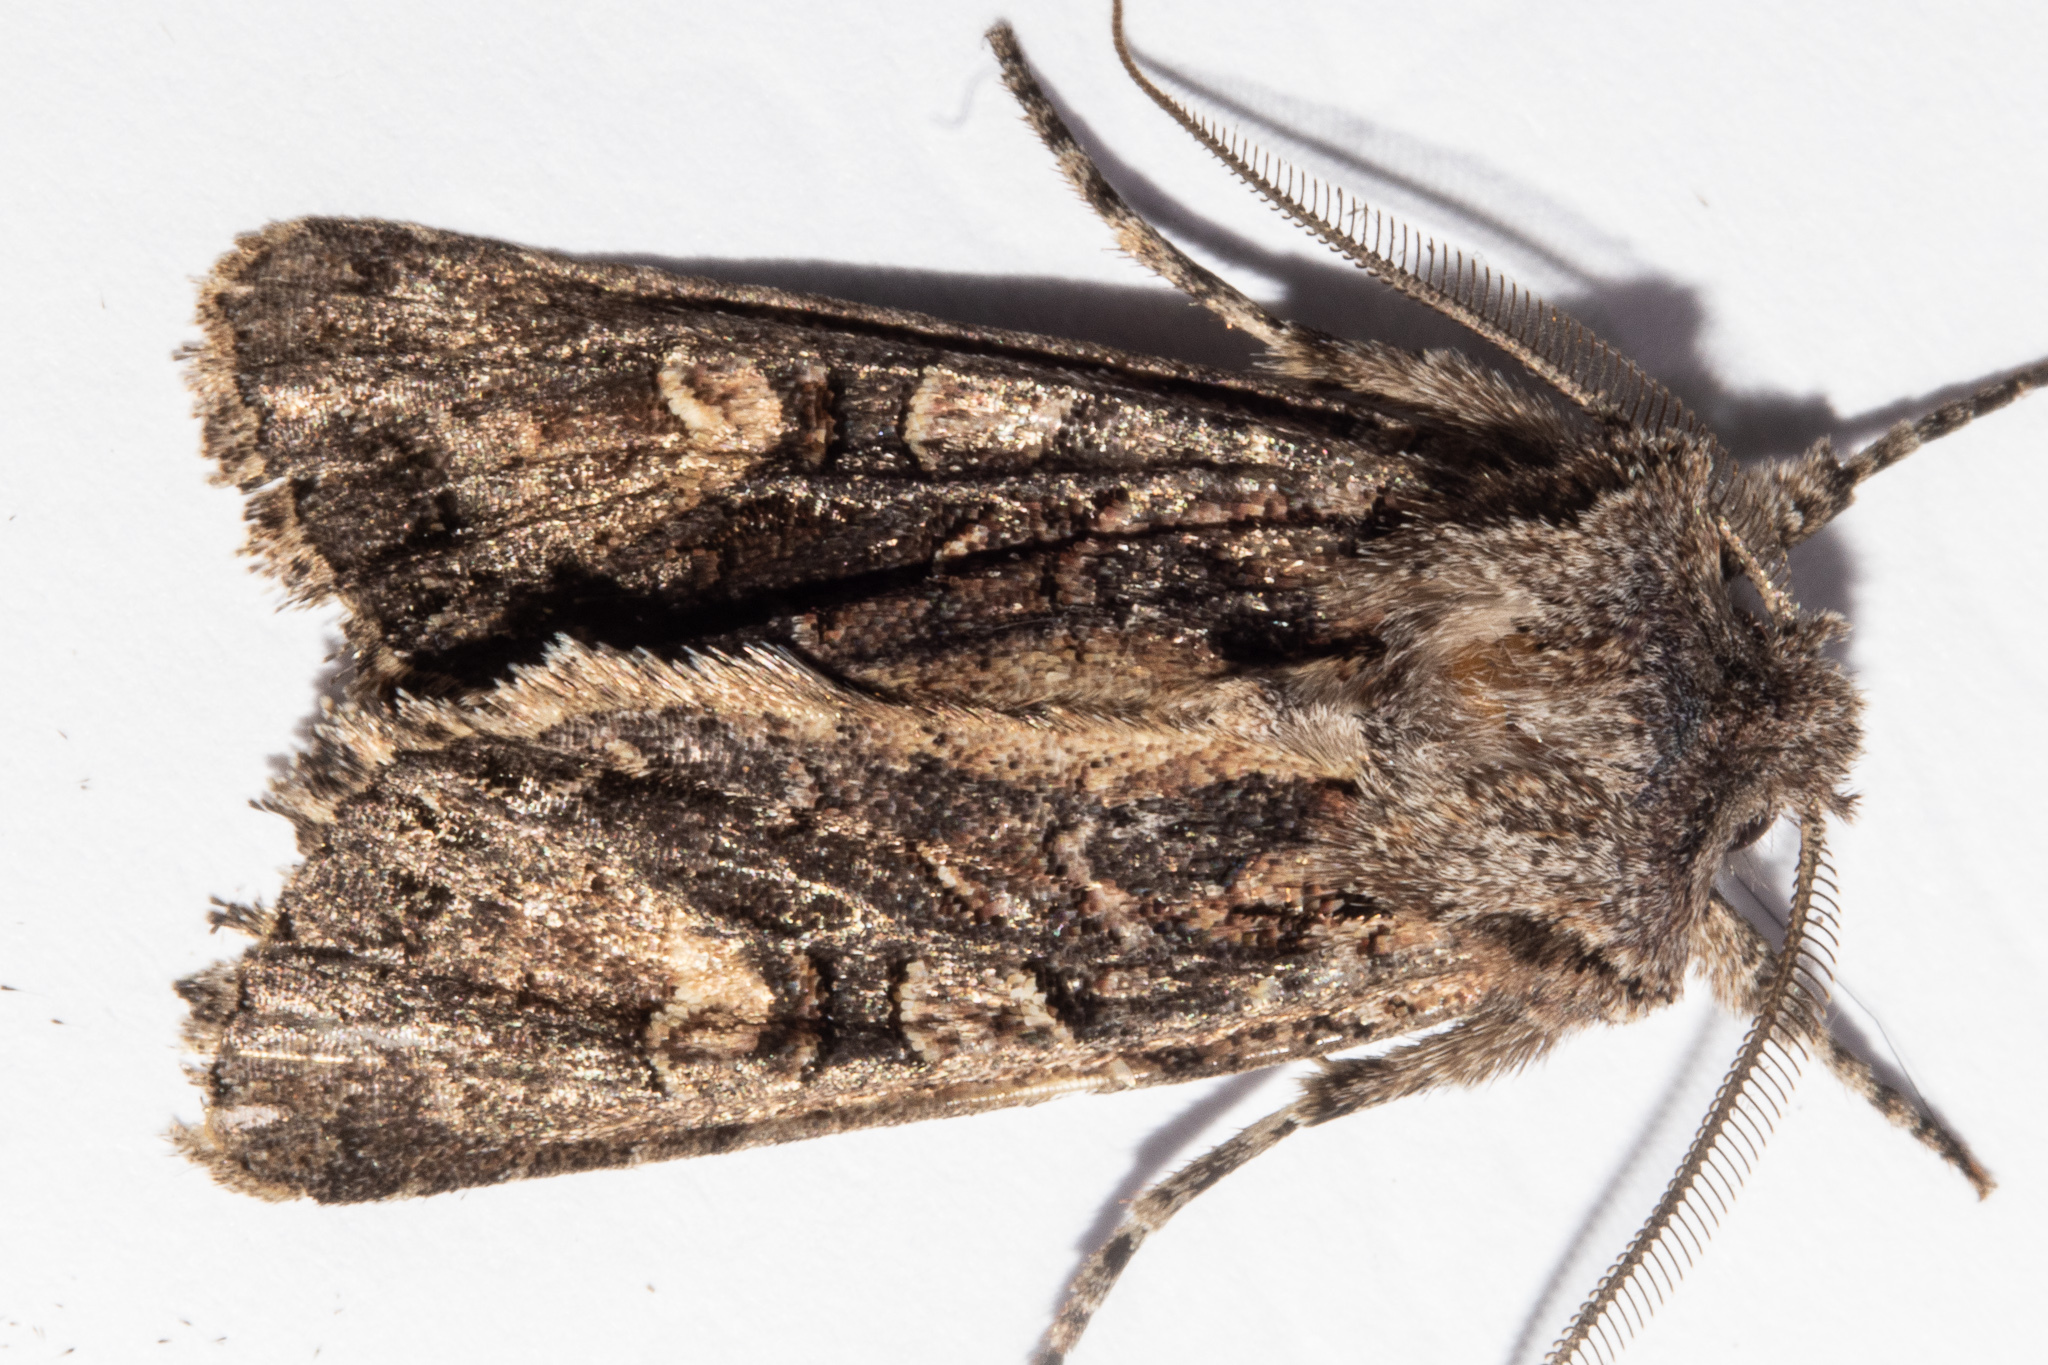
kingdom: Animalia
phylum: Arthropoda
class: Insecta
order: Lepidoptera
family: Noctuidae
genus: Ichneutica
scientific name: Ichneutica
